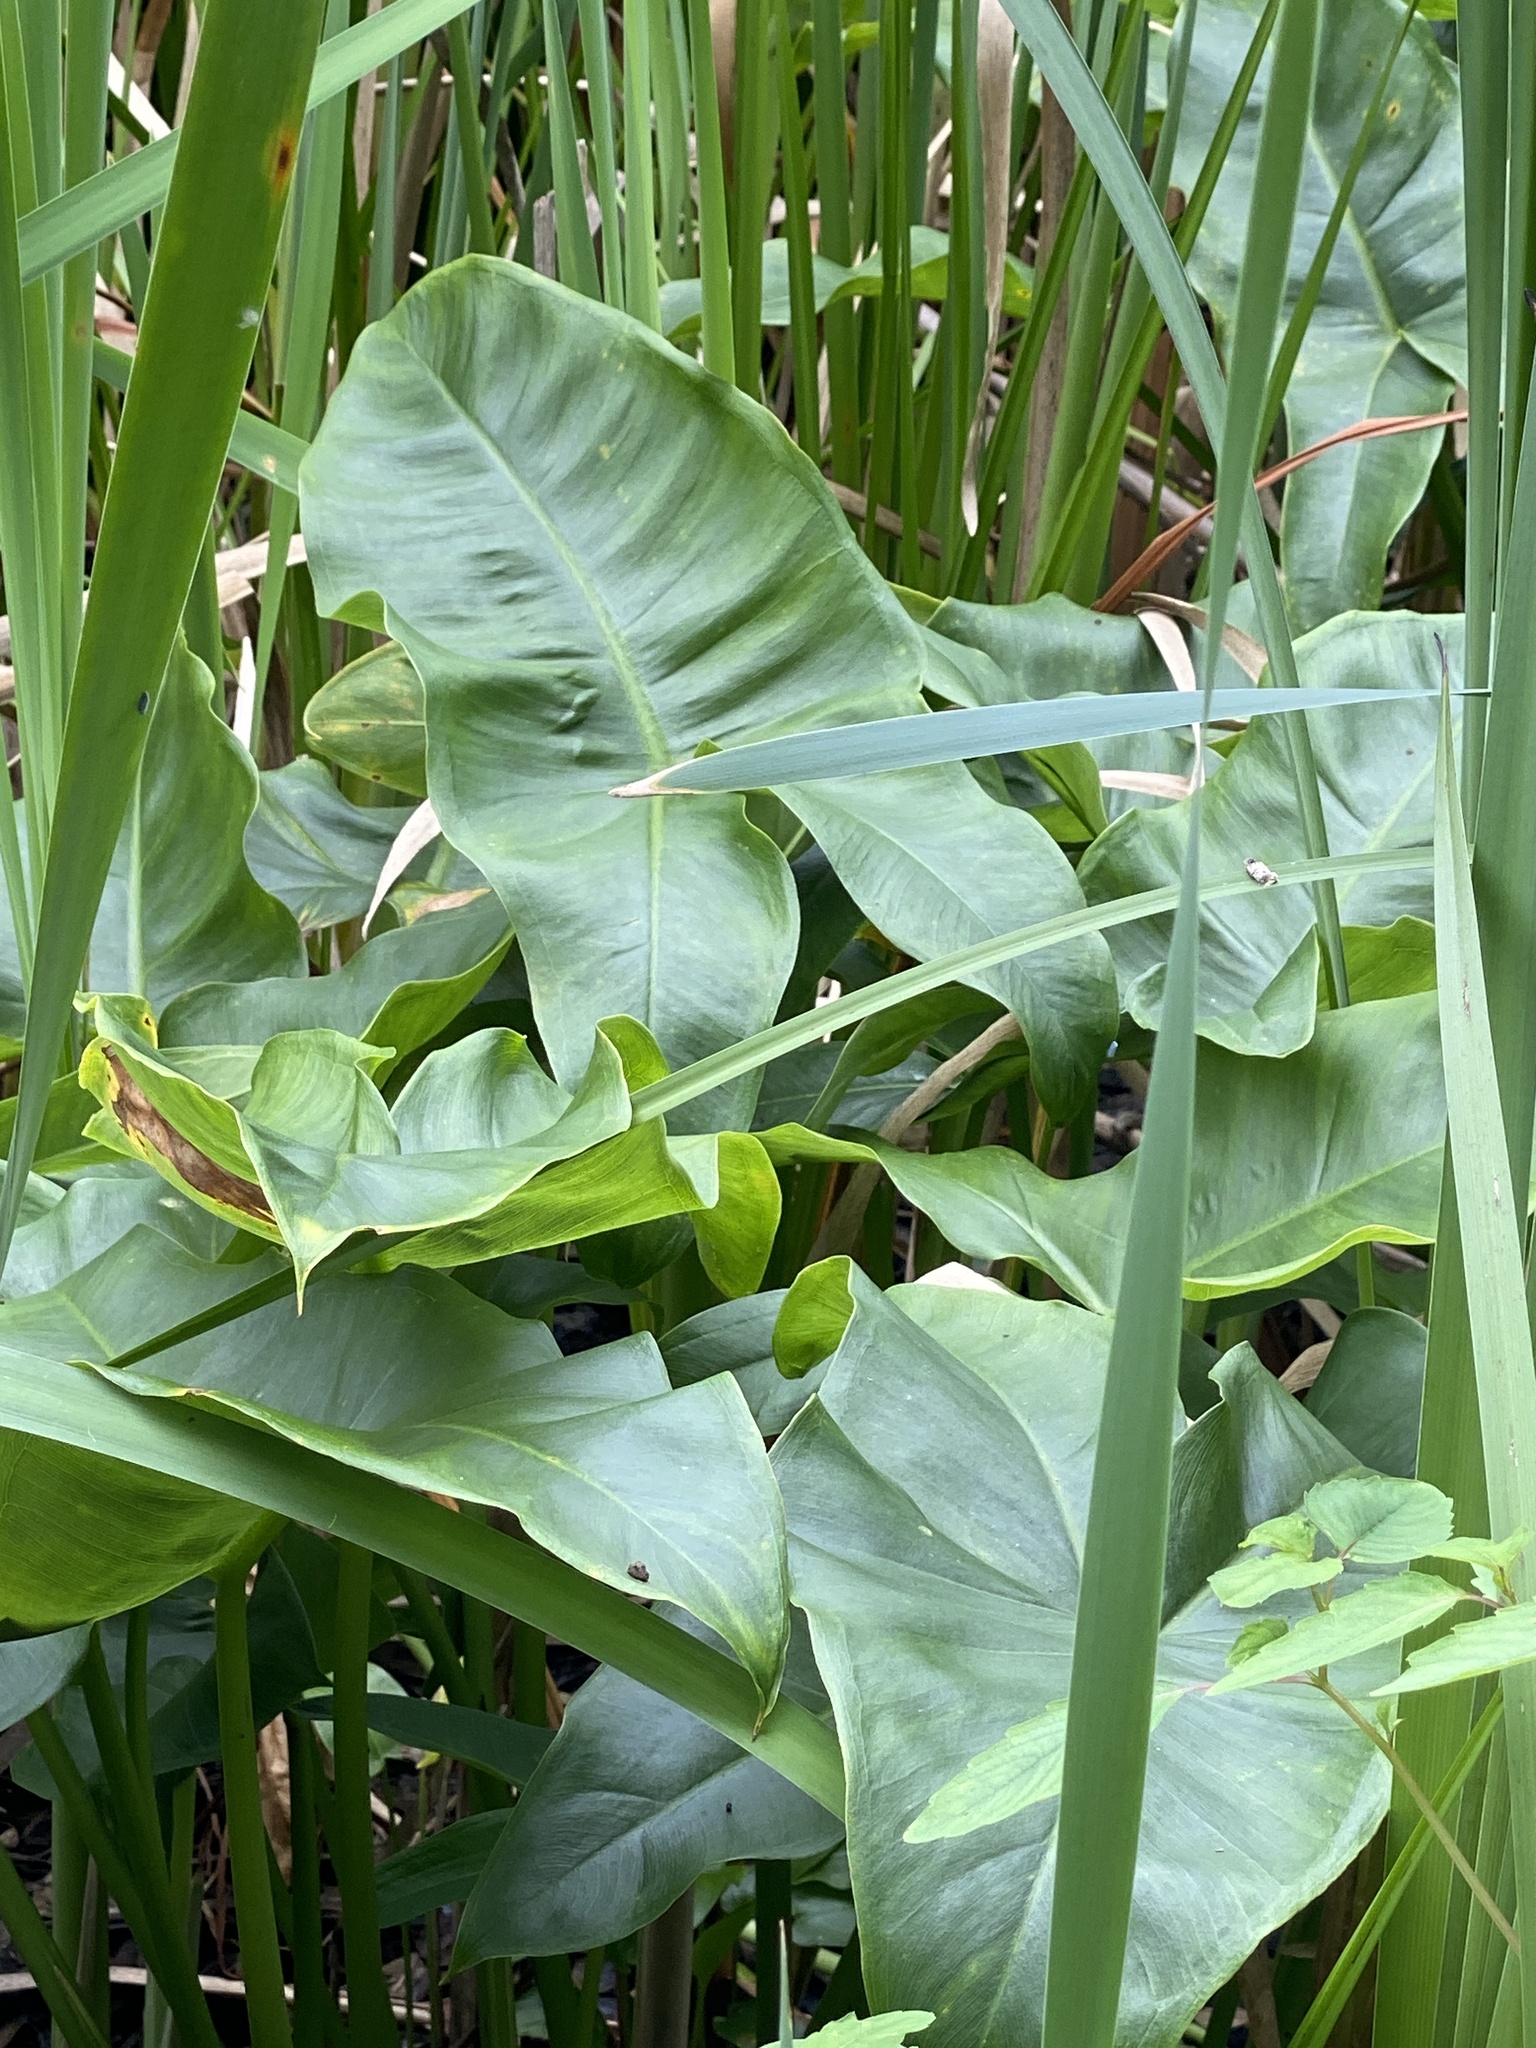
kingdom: Plantae
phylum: Tracheophyta
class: Liliopsida
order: Alismatales
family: Araceae
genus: Peltandra
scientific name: Peltandra virginica
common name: Arrow arum
